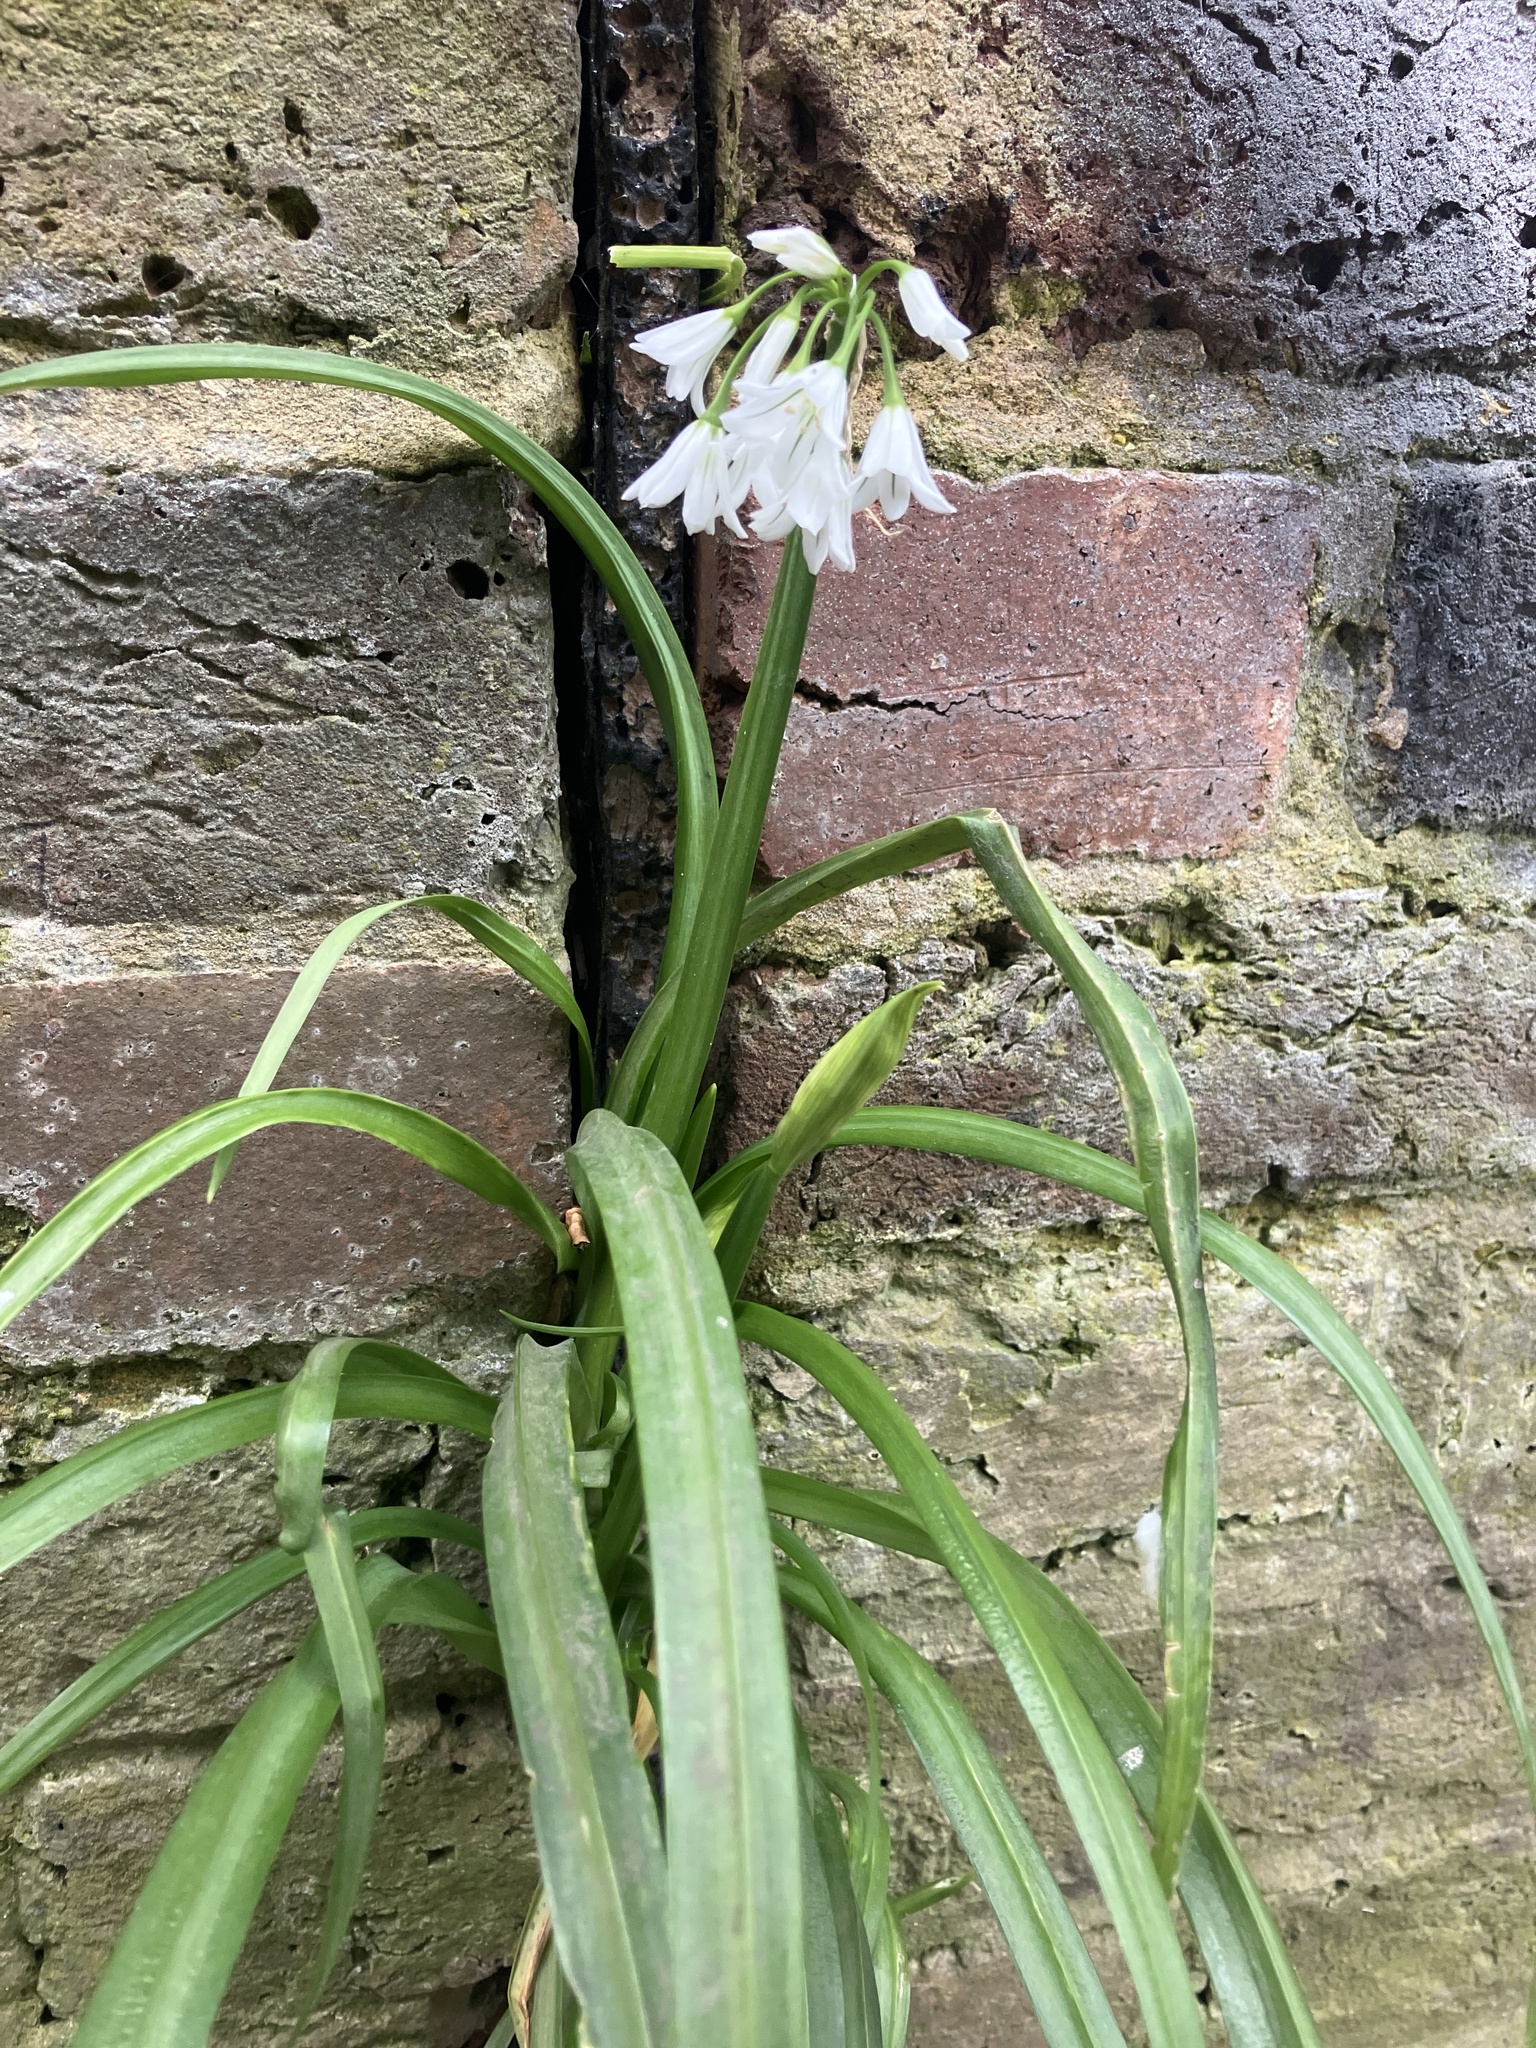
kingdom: Plantae
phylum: Tracheophyta
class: Liliopsida
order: Asparagales
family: Amaryllidaceae
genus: Allium
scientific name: Allium triquetrum
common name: Three-cornered garlic
